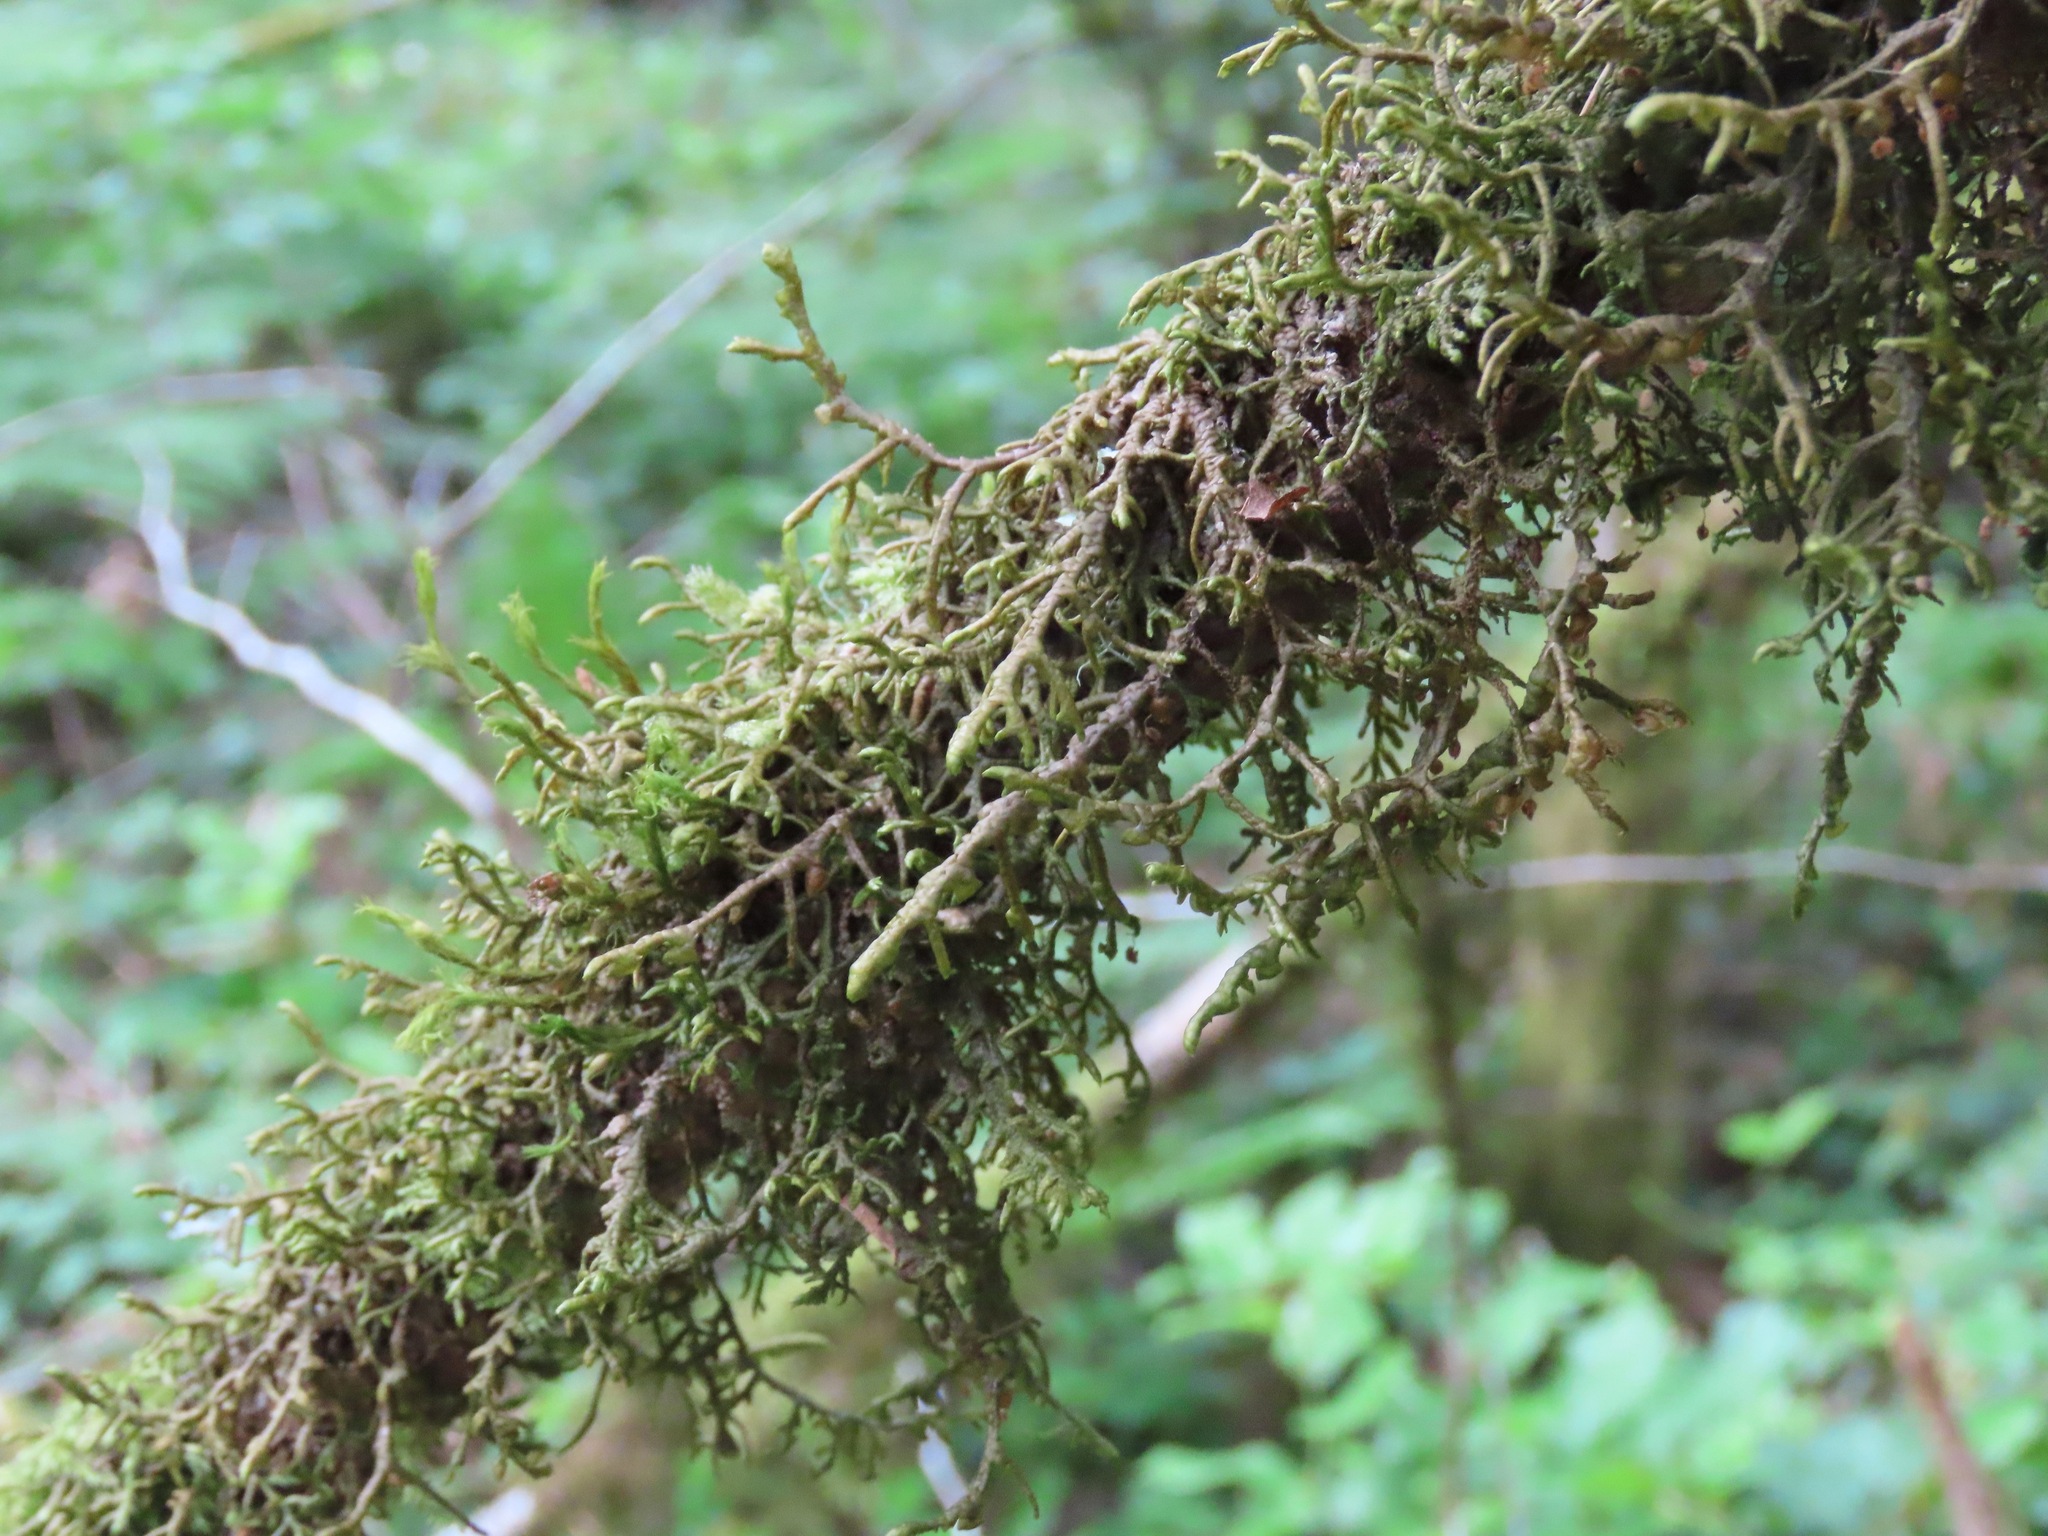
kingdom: Plantae
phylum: Marchantiophyta
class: Jungermanniopsida
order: Porellales
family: Porellaceae
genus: Porella
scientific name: Porella navicularis
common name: Tree ruffle liverwort
